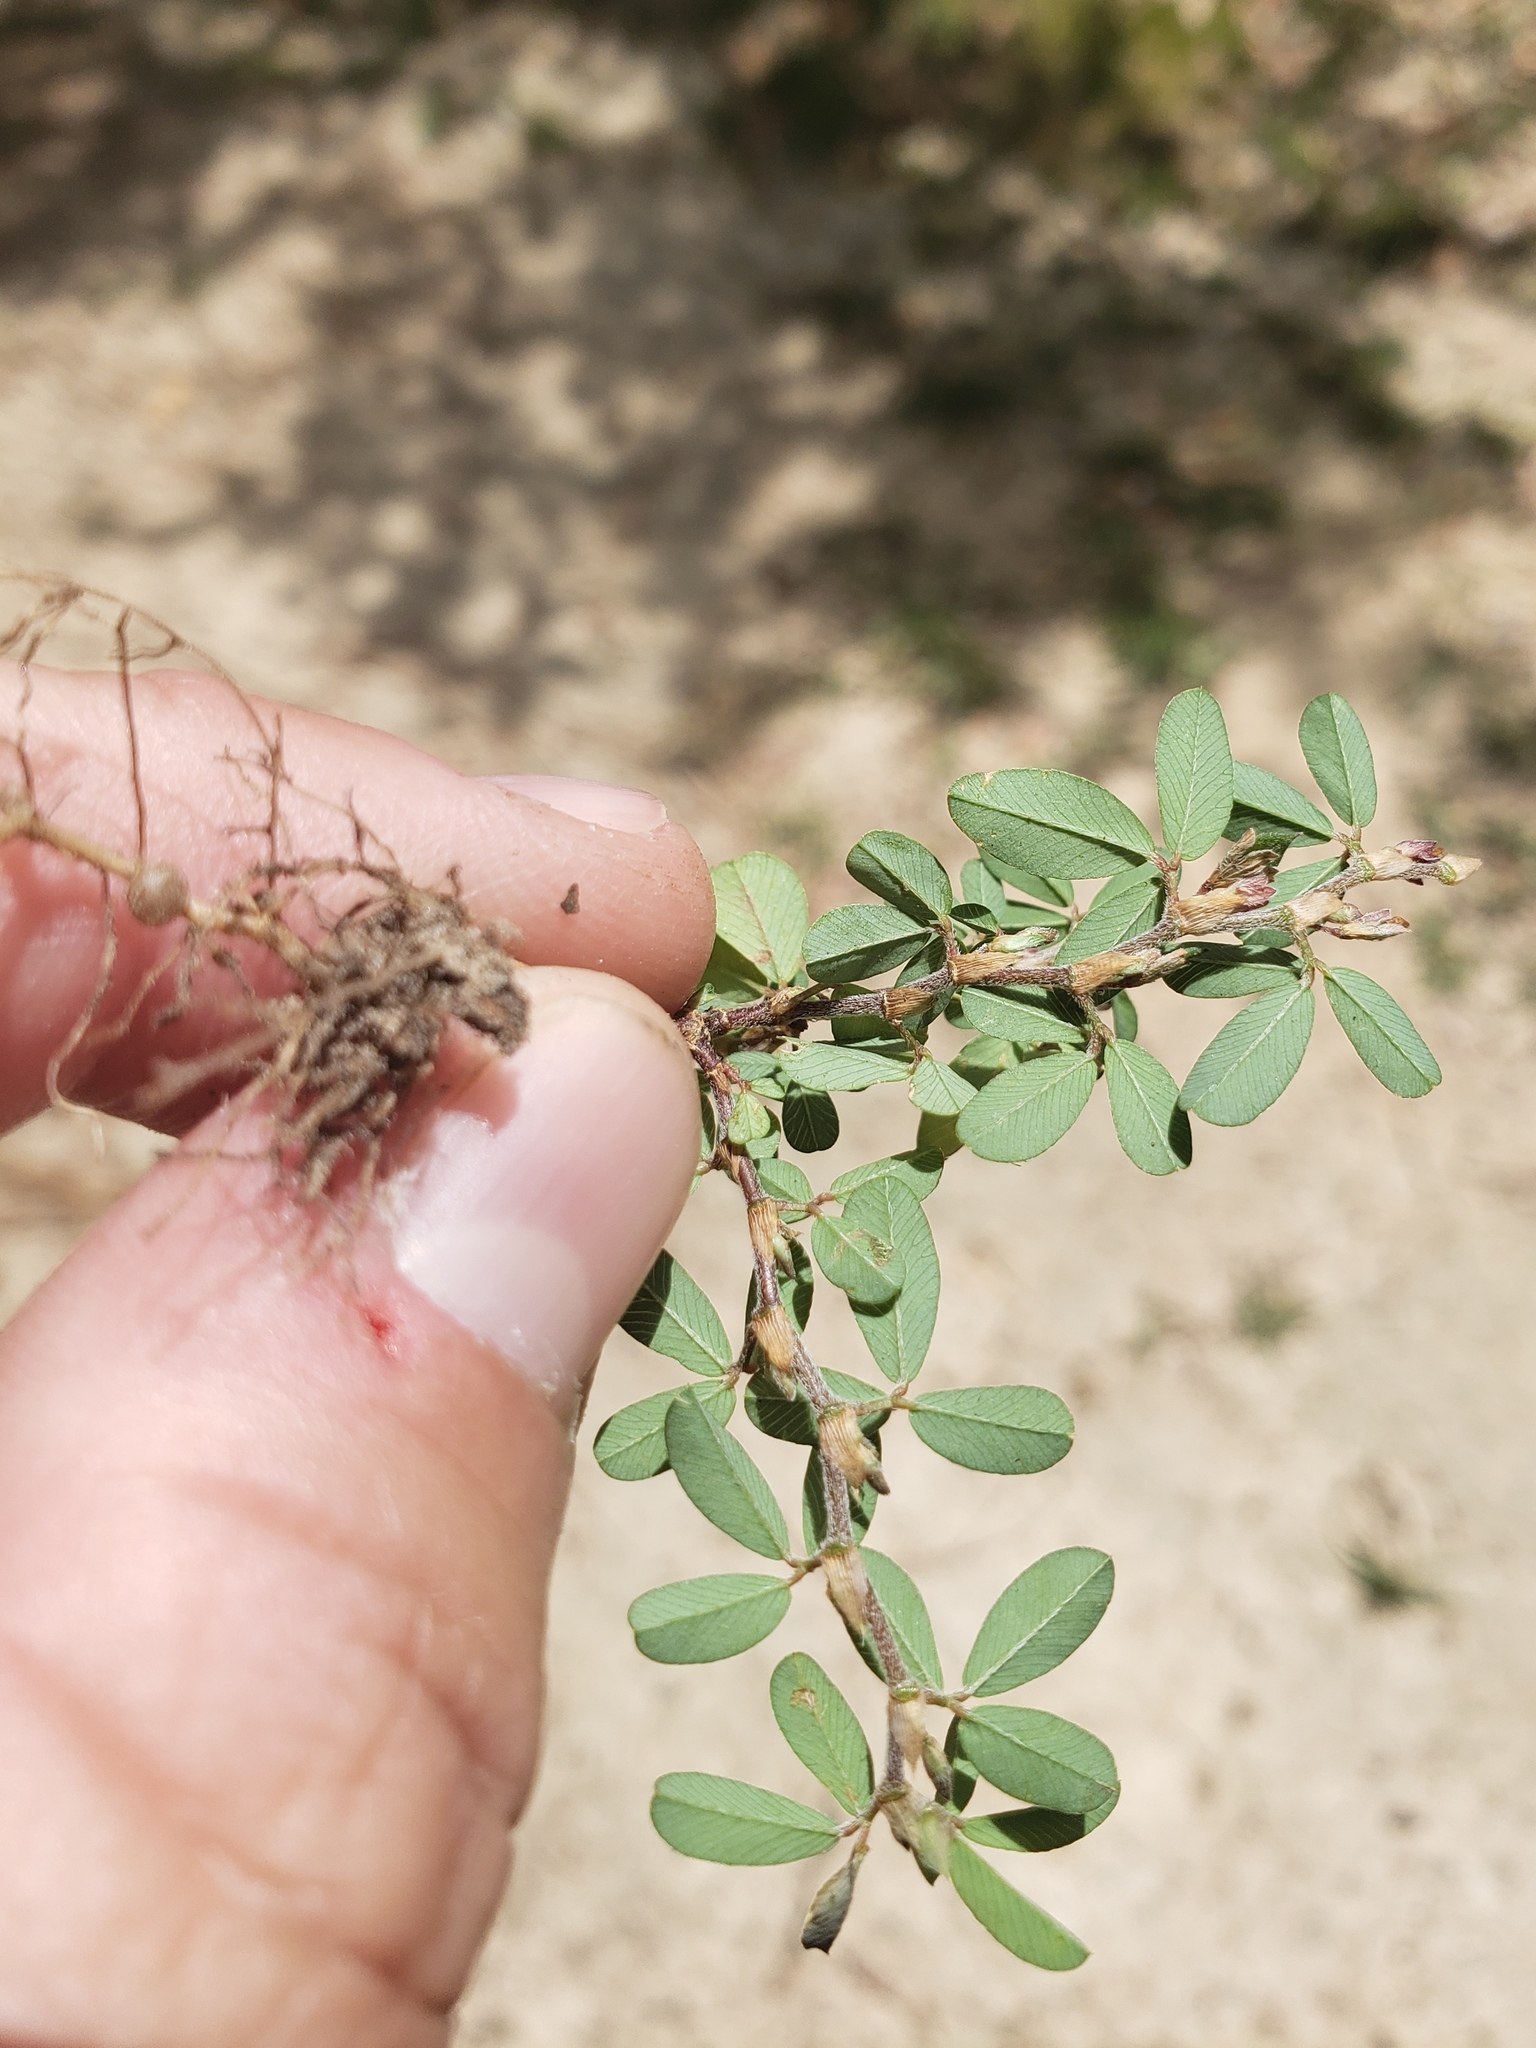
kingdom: Plantae
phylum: Tracheophyta
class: Magnoliopsida
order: Fabales
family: Fabaceae
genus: Kummerowia
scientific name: Kummerowia striata
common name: Japanese clover
